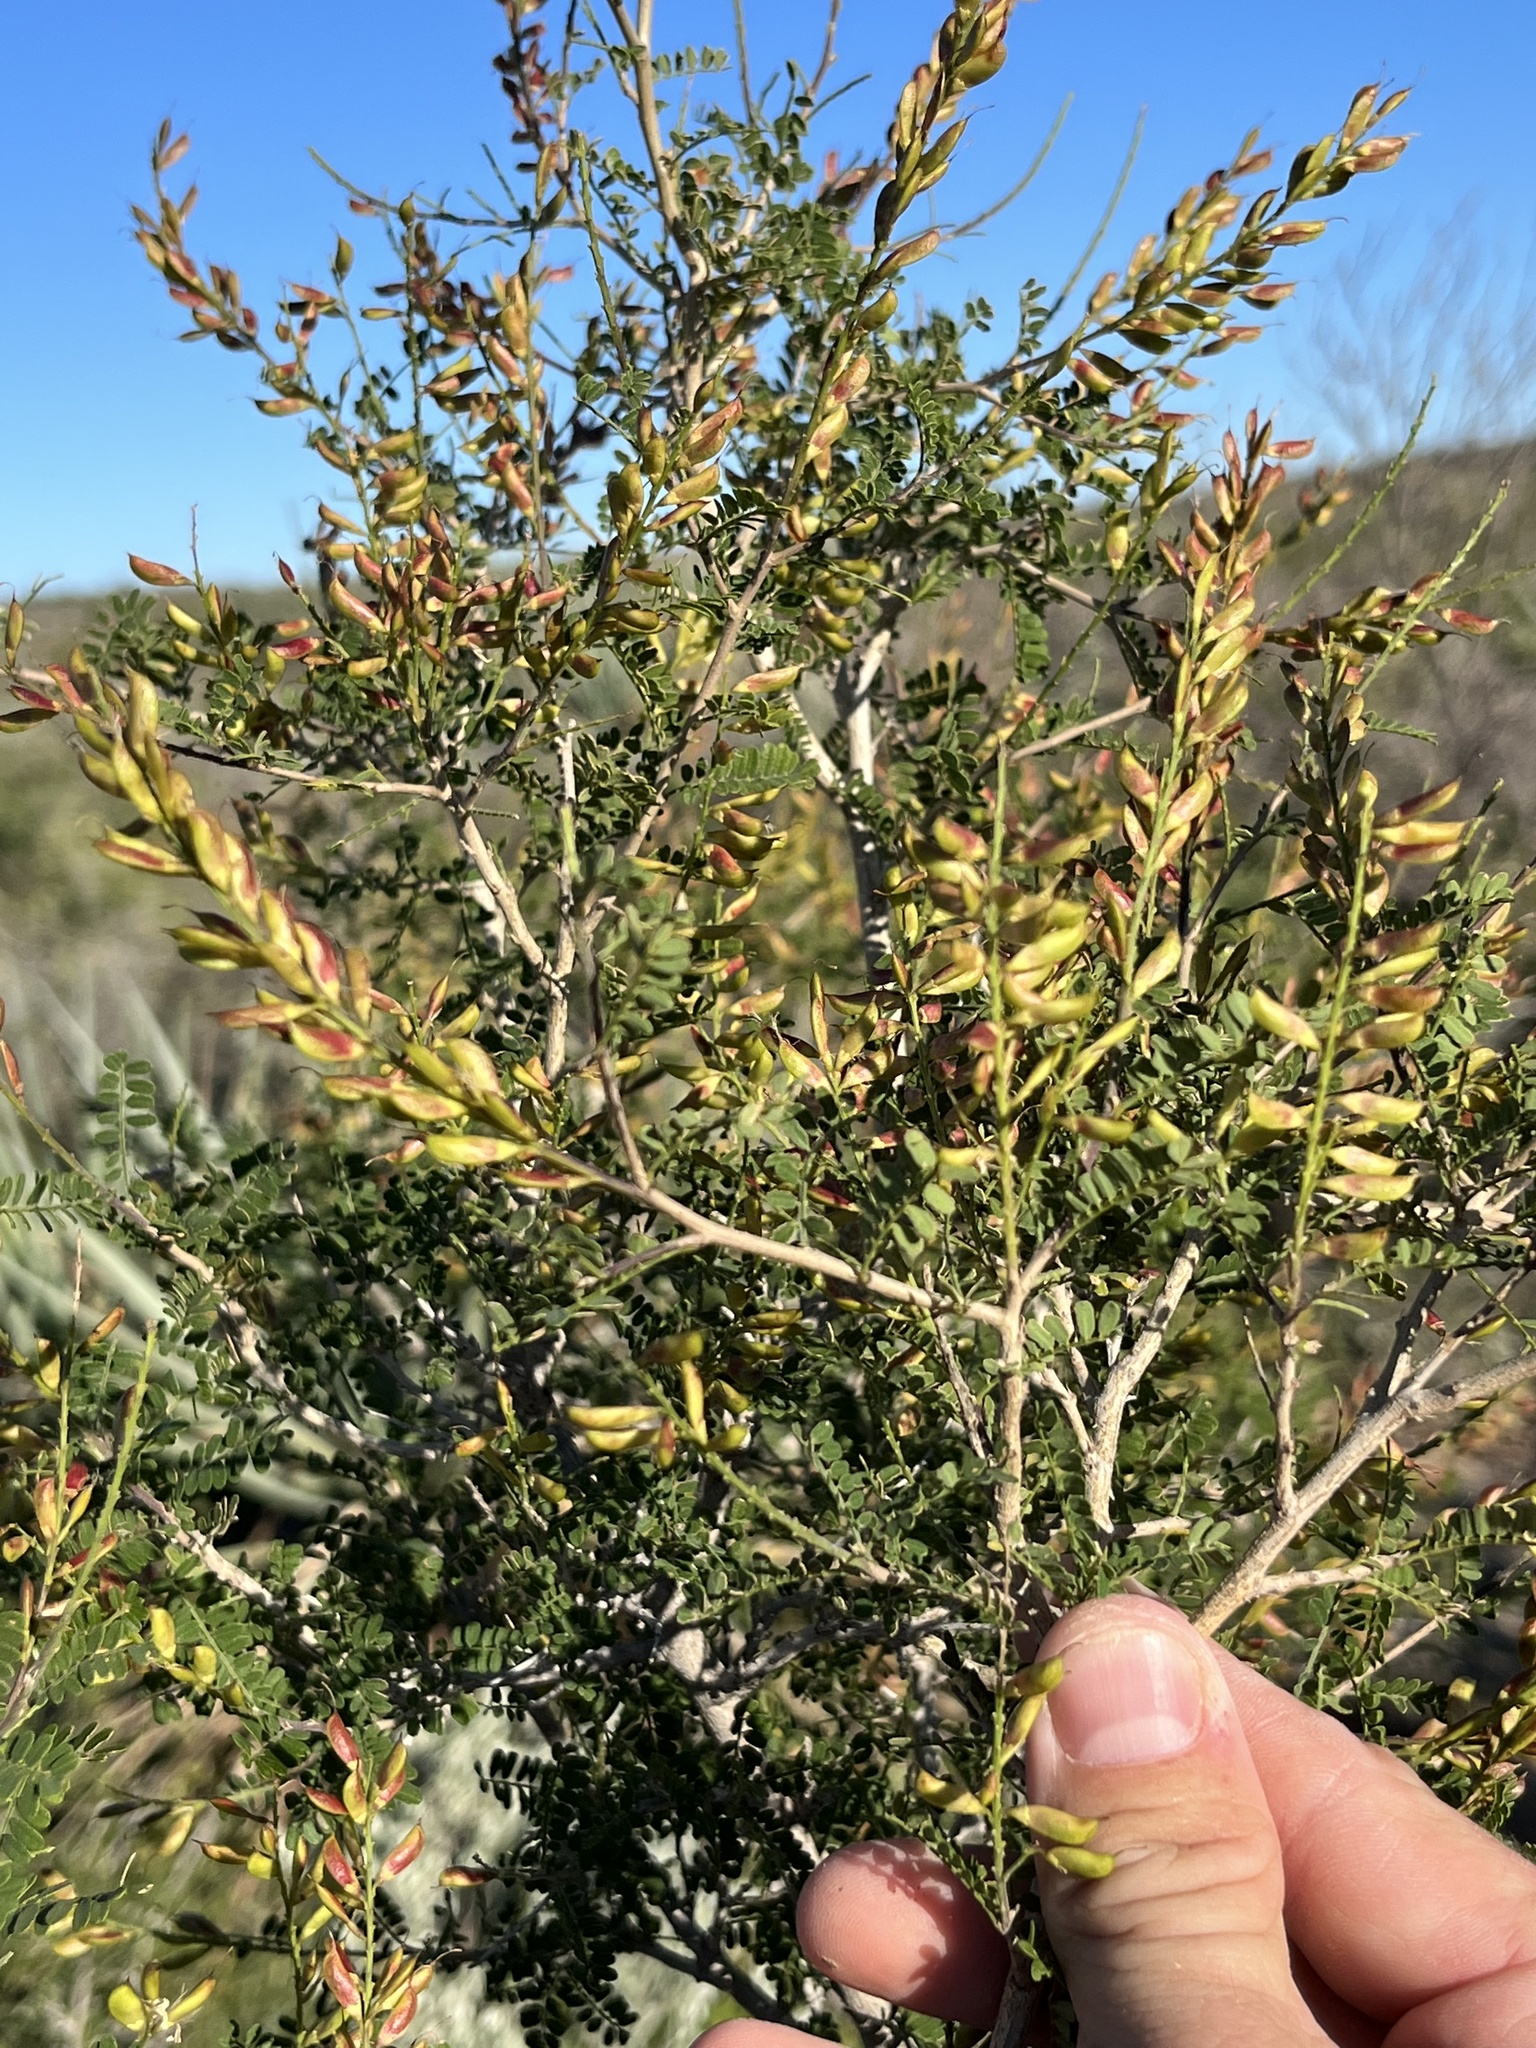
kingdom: Plantae
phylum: Tracheophyta
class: Magnoliopsida
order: Fabales
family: Fabaceae
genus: Eysenhardtia
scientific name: Eysenhardtia texana
